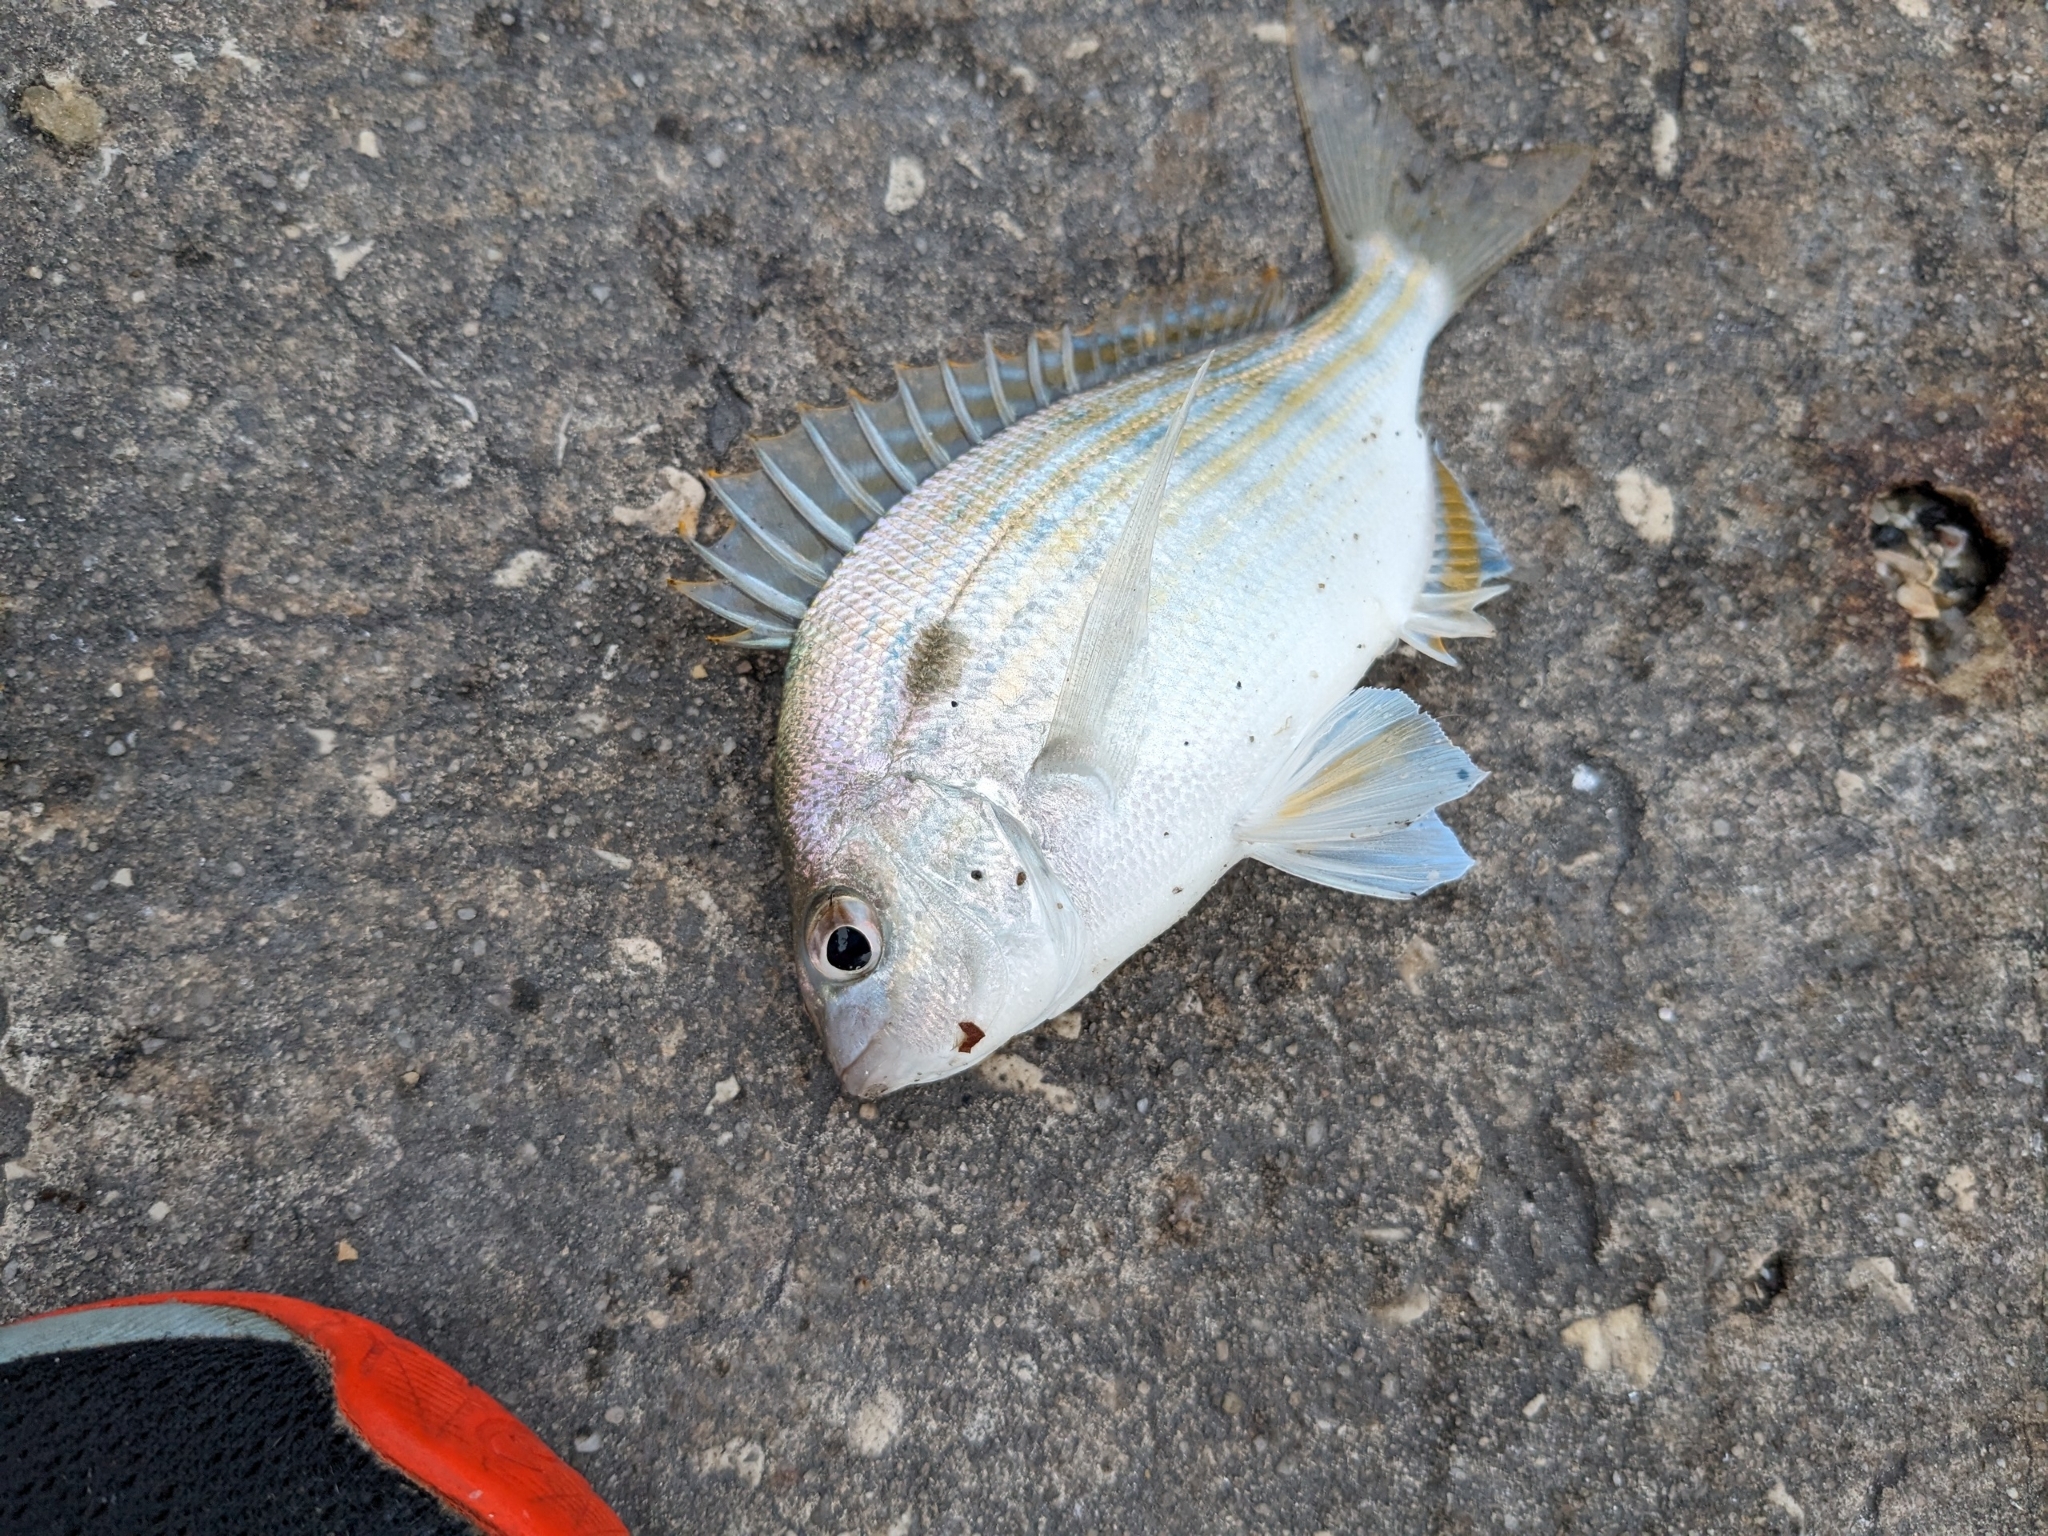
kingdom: Animalia
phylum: Chordata
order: Perciformes
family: Sparidae
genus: Lagodon
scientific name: Lagodon rhomboides
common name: Pinfish
